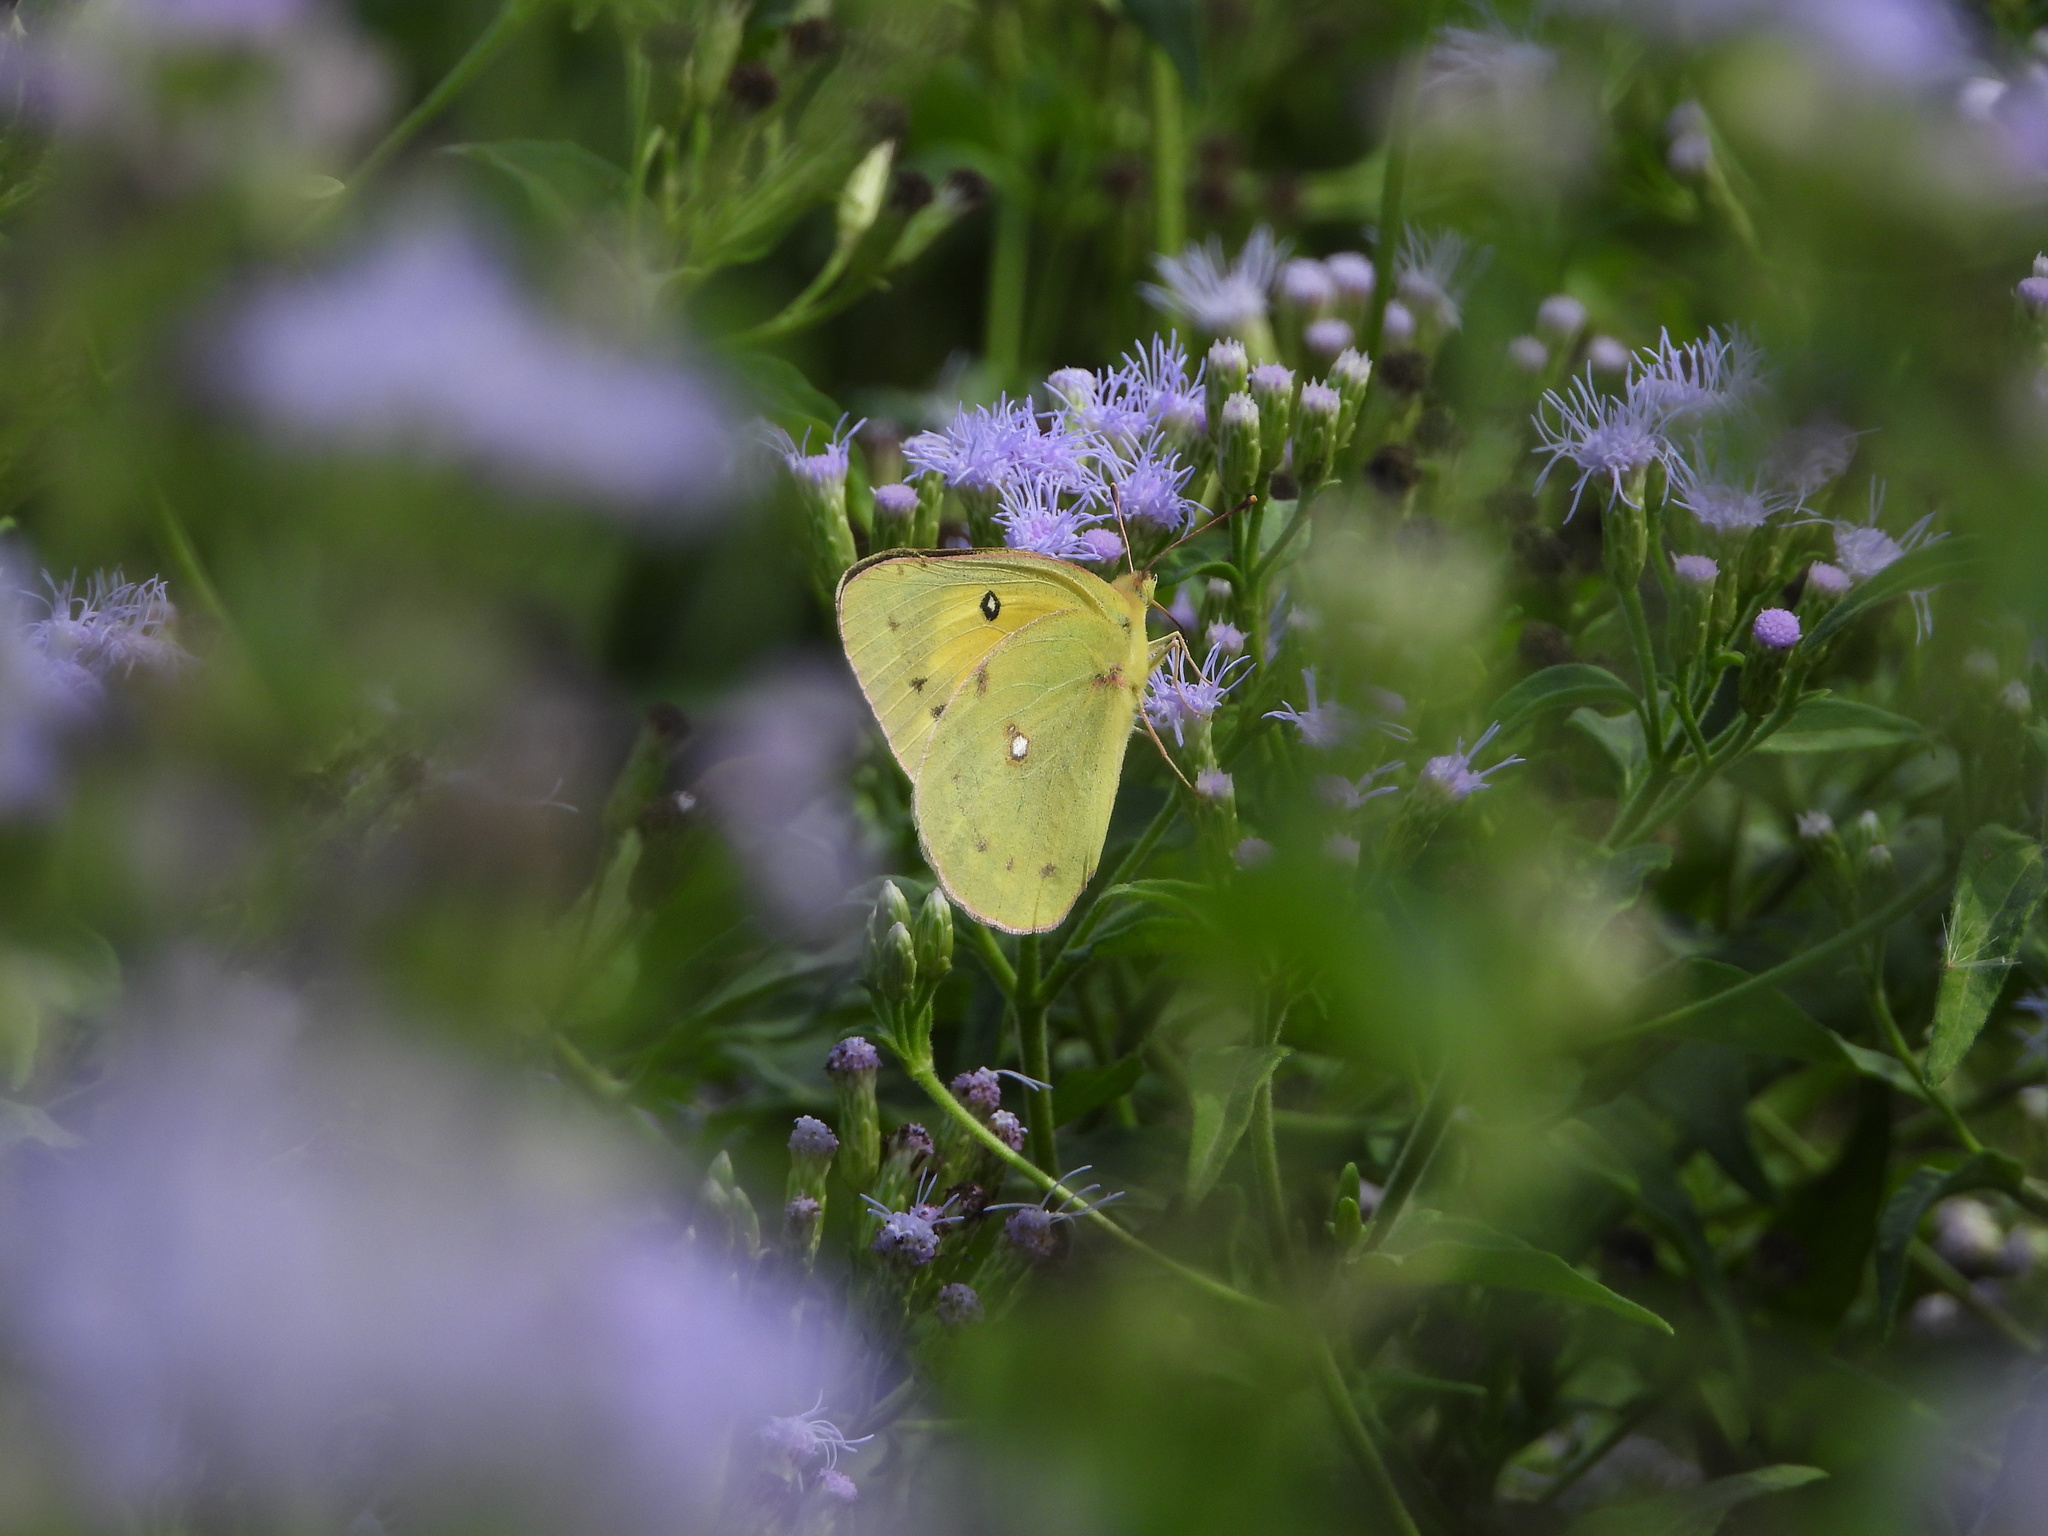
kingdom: Animalia
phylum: Arthropoda
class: Insecta
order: Lepidoptera
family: Pieridae
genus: Colias
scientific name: Colias eurytheme
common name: Alfalfa butterfly
